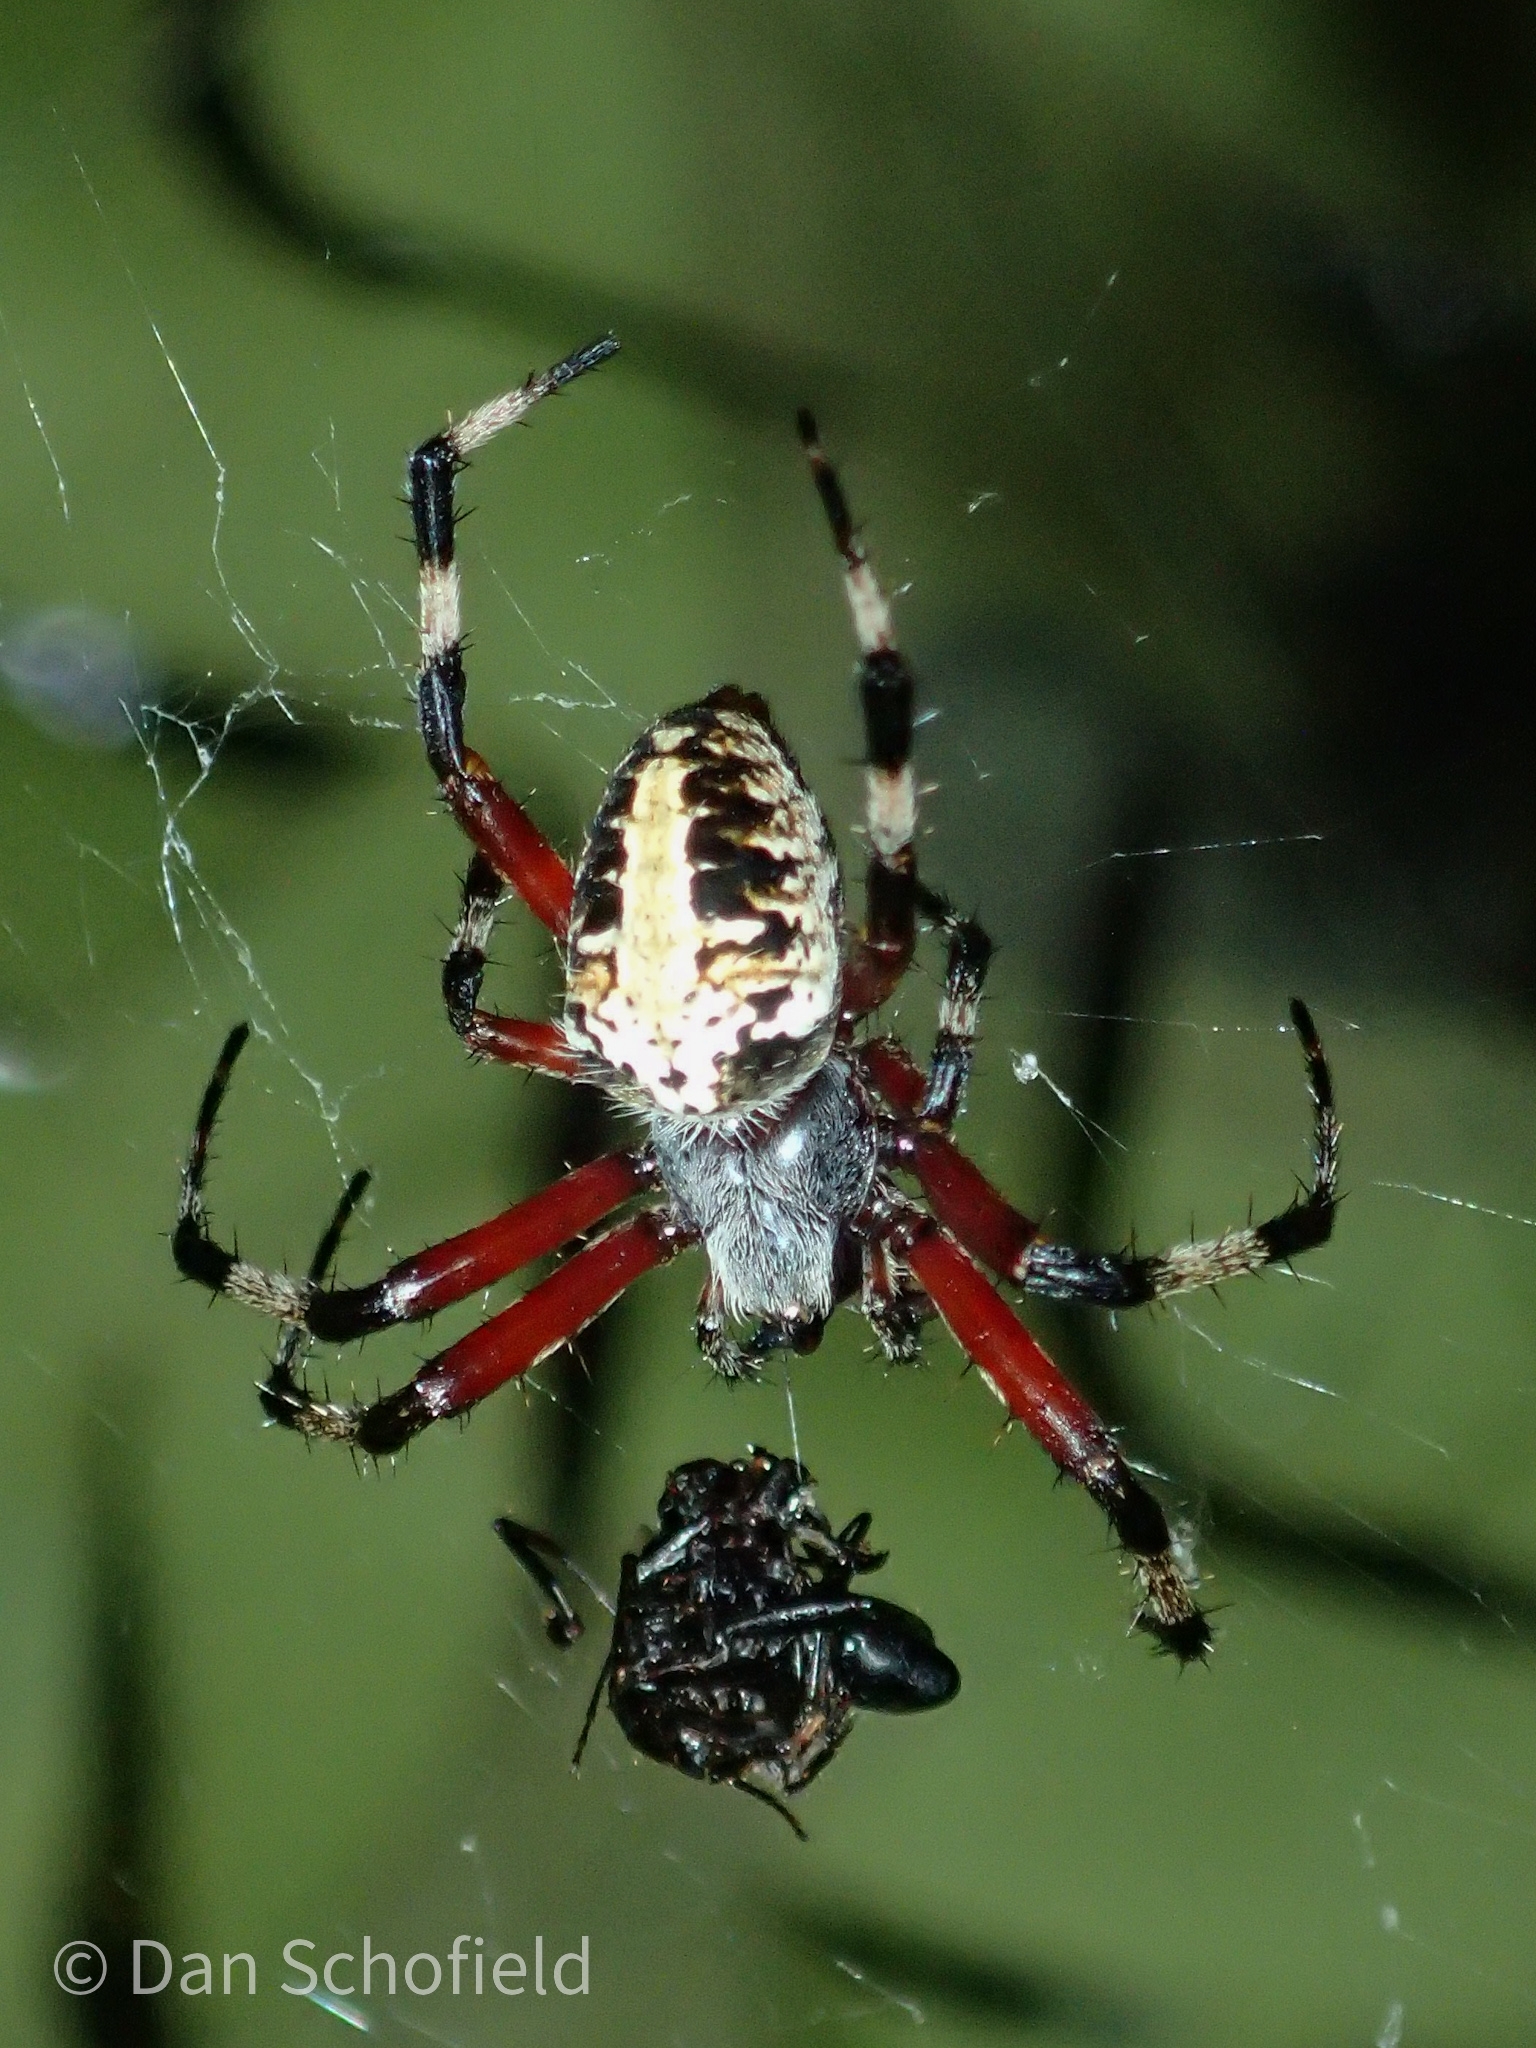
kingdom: Animalia
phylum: Arthropoda
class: Arachnida
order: Araneae
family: Araneidae
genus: Neoscona
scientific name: Neoscona domiciliorum
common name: Red-femured spotted orbweaver
